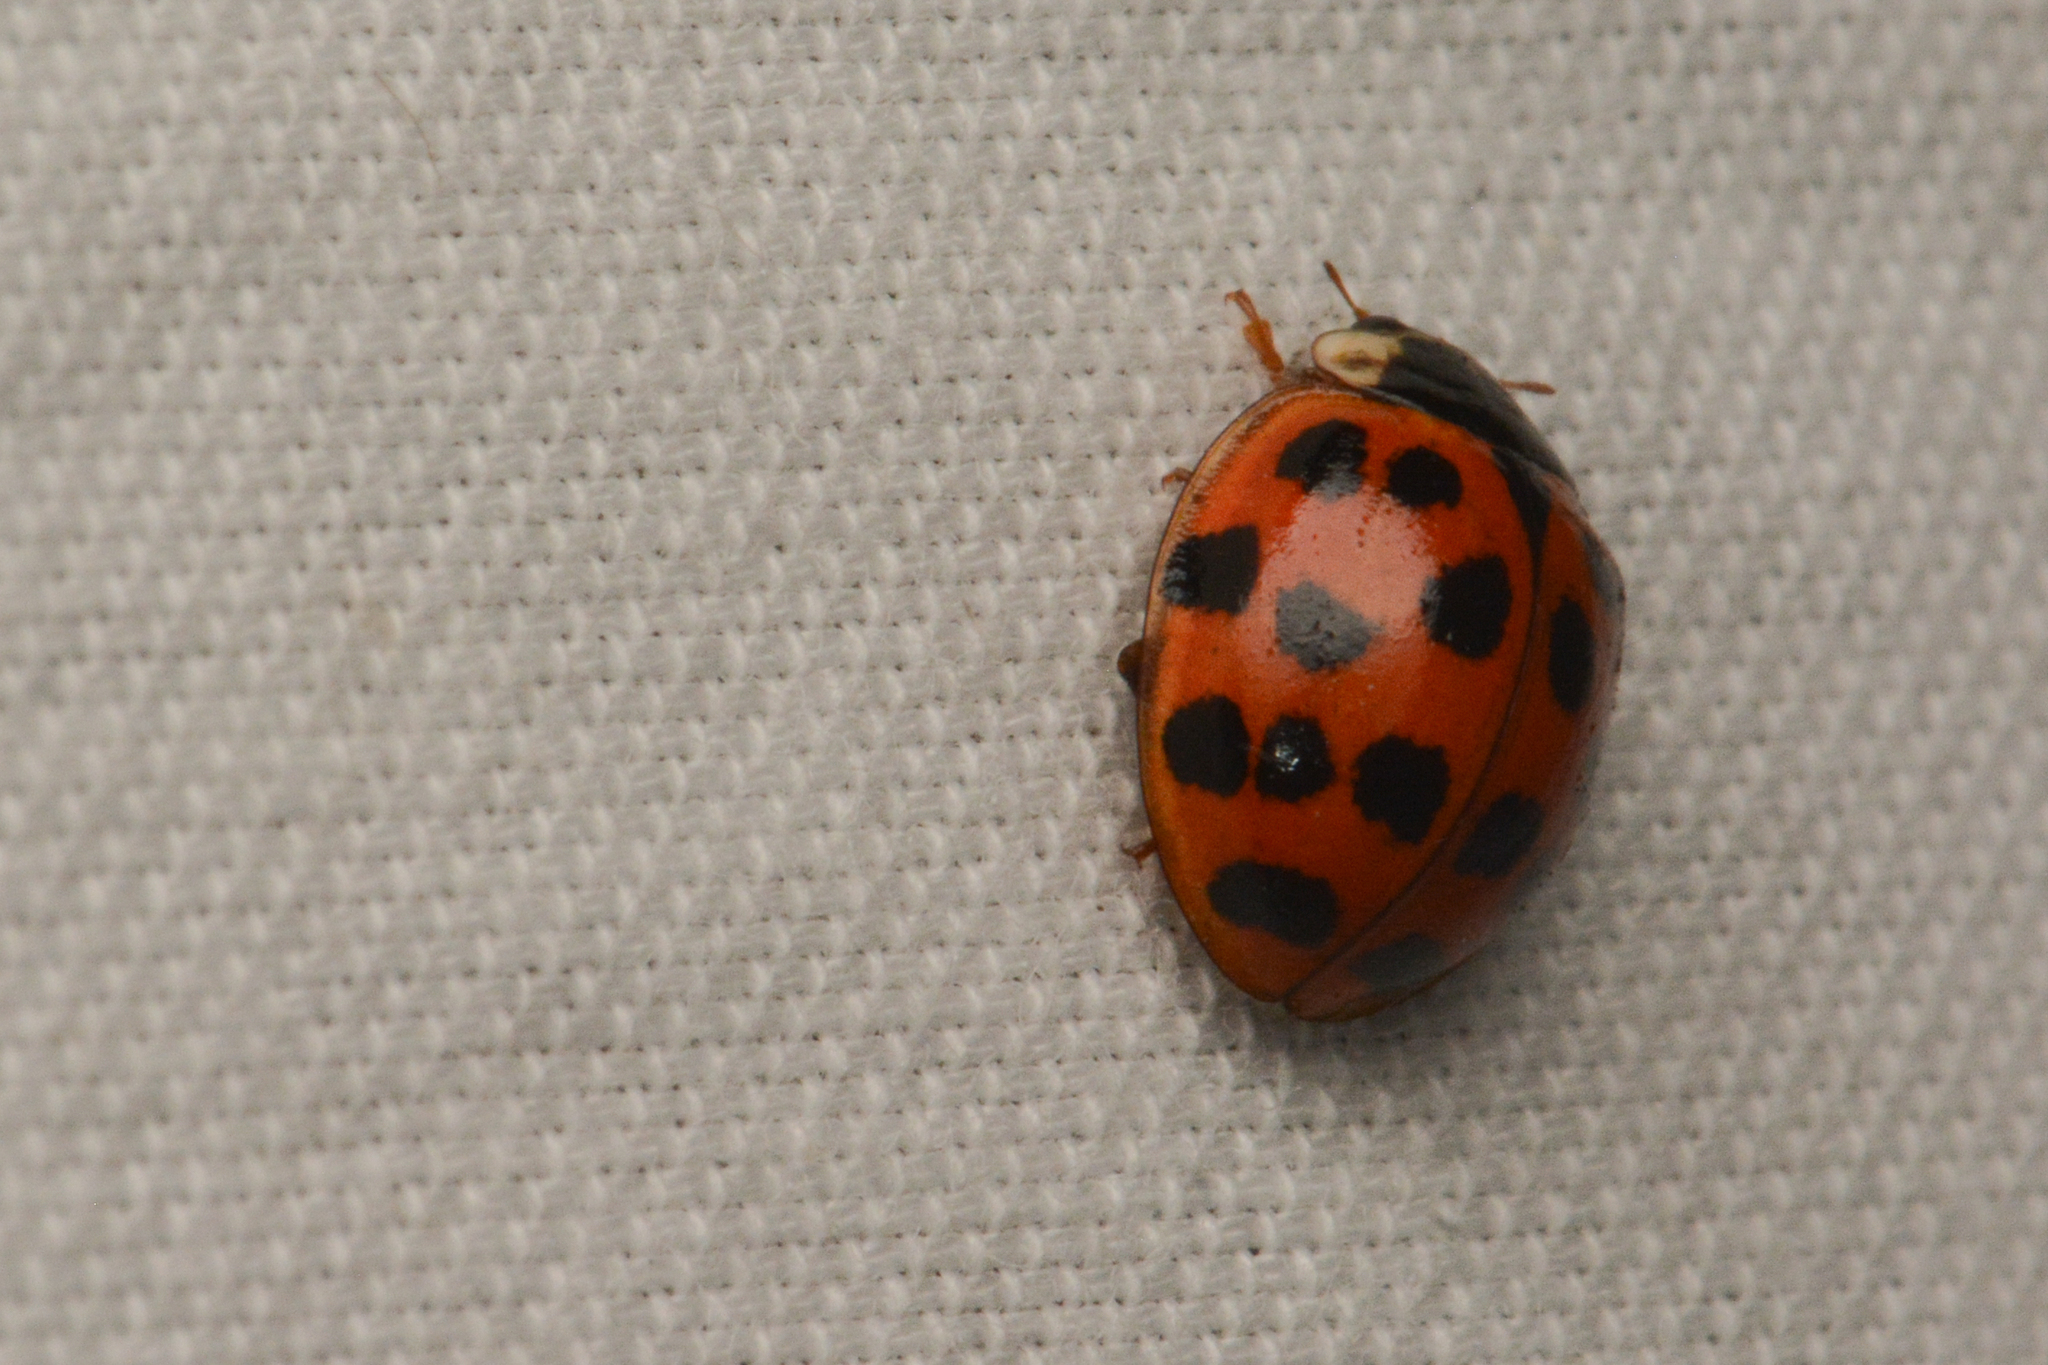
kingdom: Animalia
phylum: Arthropoda
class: Insecta
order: Coleoptera
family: Coccinellidae
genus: Harmonia
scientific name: Harmonia axyridis
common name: Harlequin ladybird
